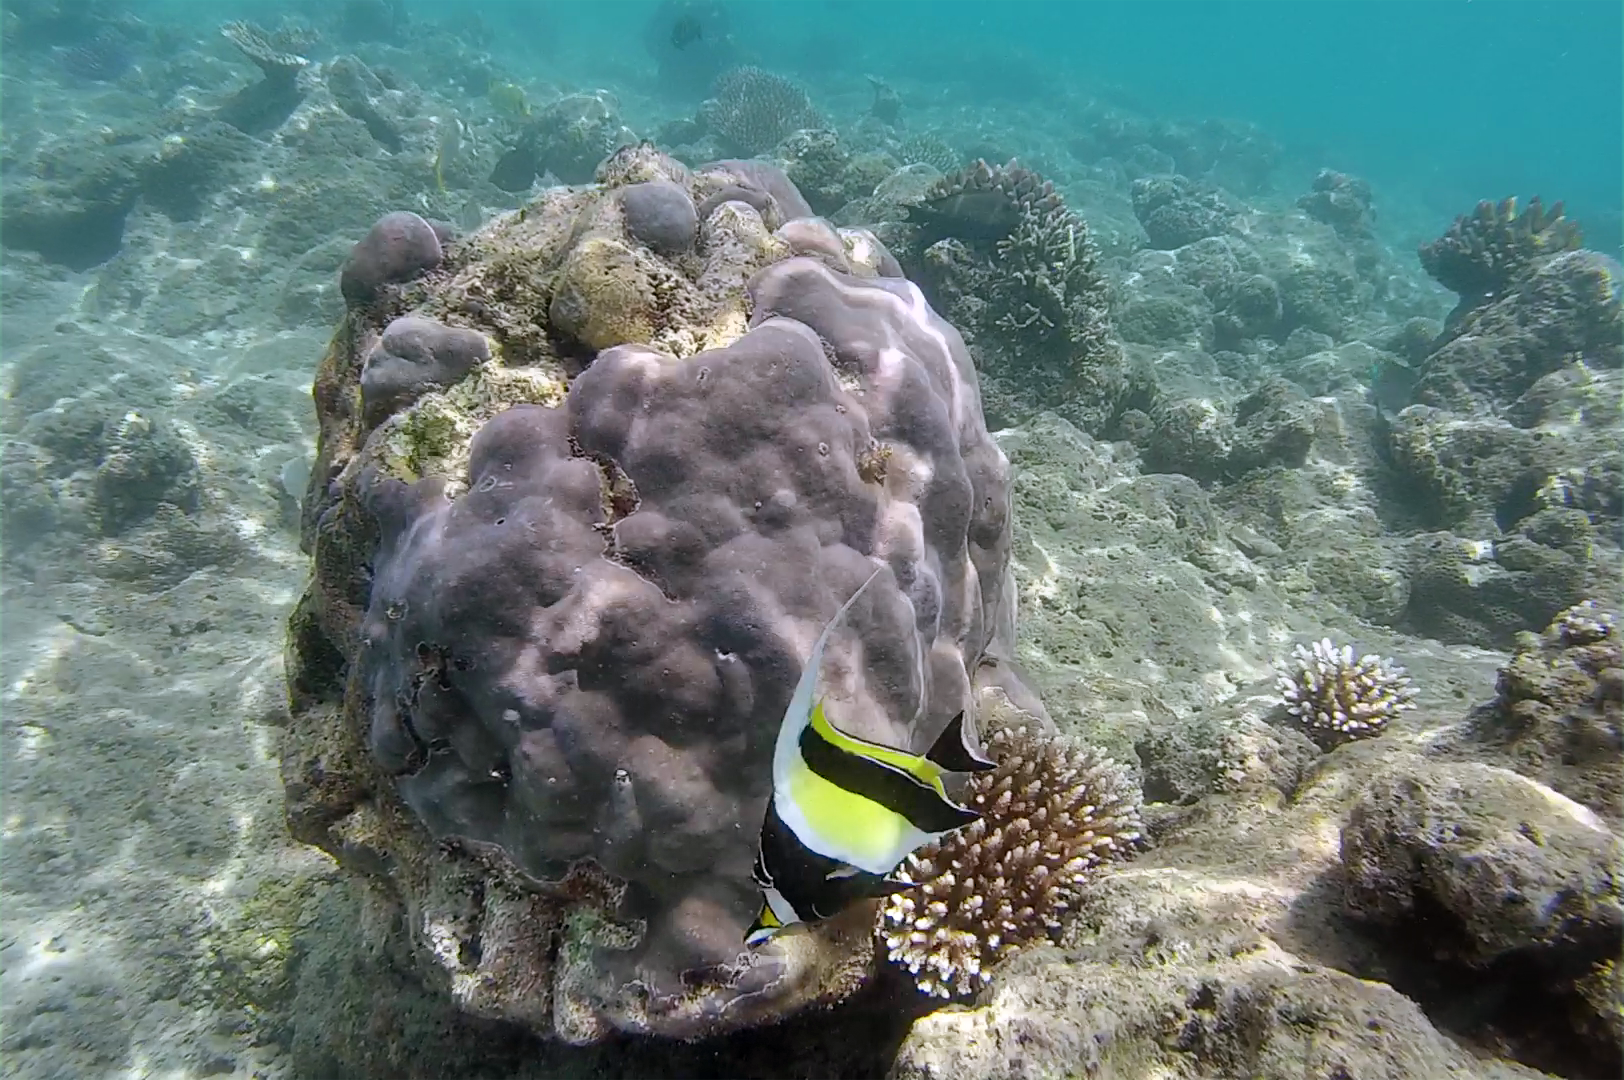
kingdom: Animalia
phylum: Chordata
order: Perciformes
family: Zanclidae
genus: Zanclus
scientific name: Zanclus cornutus
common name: Moorish idol
